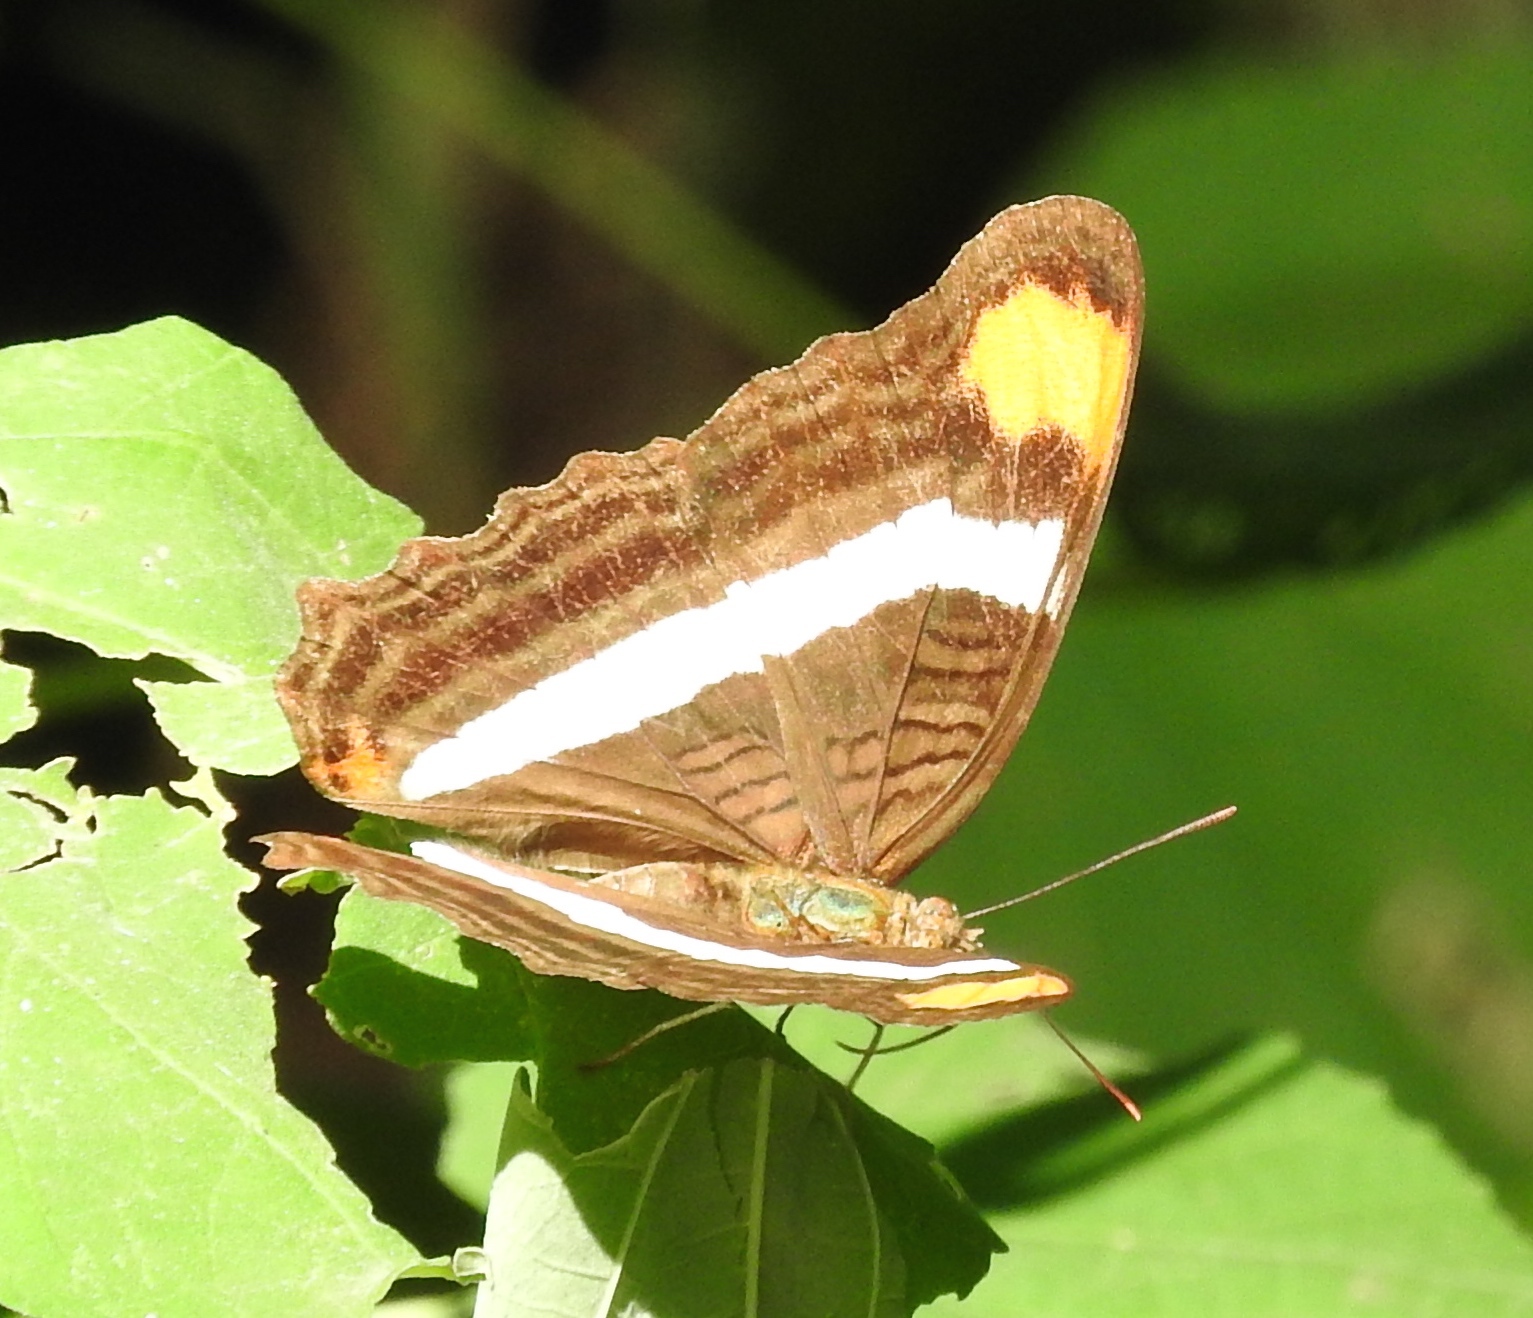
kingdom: Animalia
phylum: Arthropoda
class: Insecta
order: Lepidoptera
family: Nymphalidae
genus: Limenitis
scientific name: Limenitis fessonia
